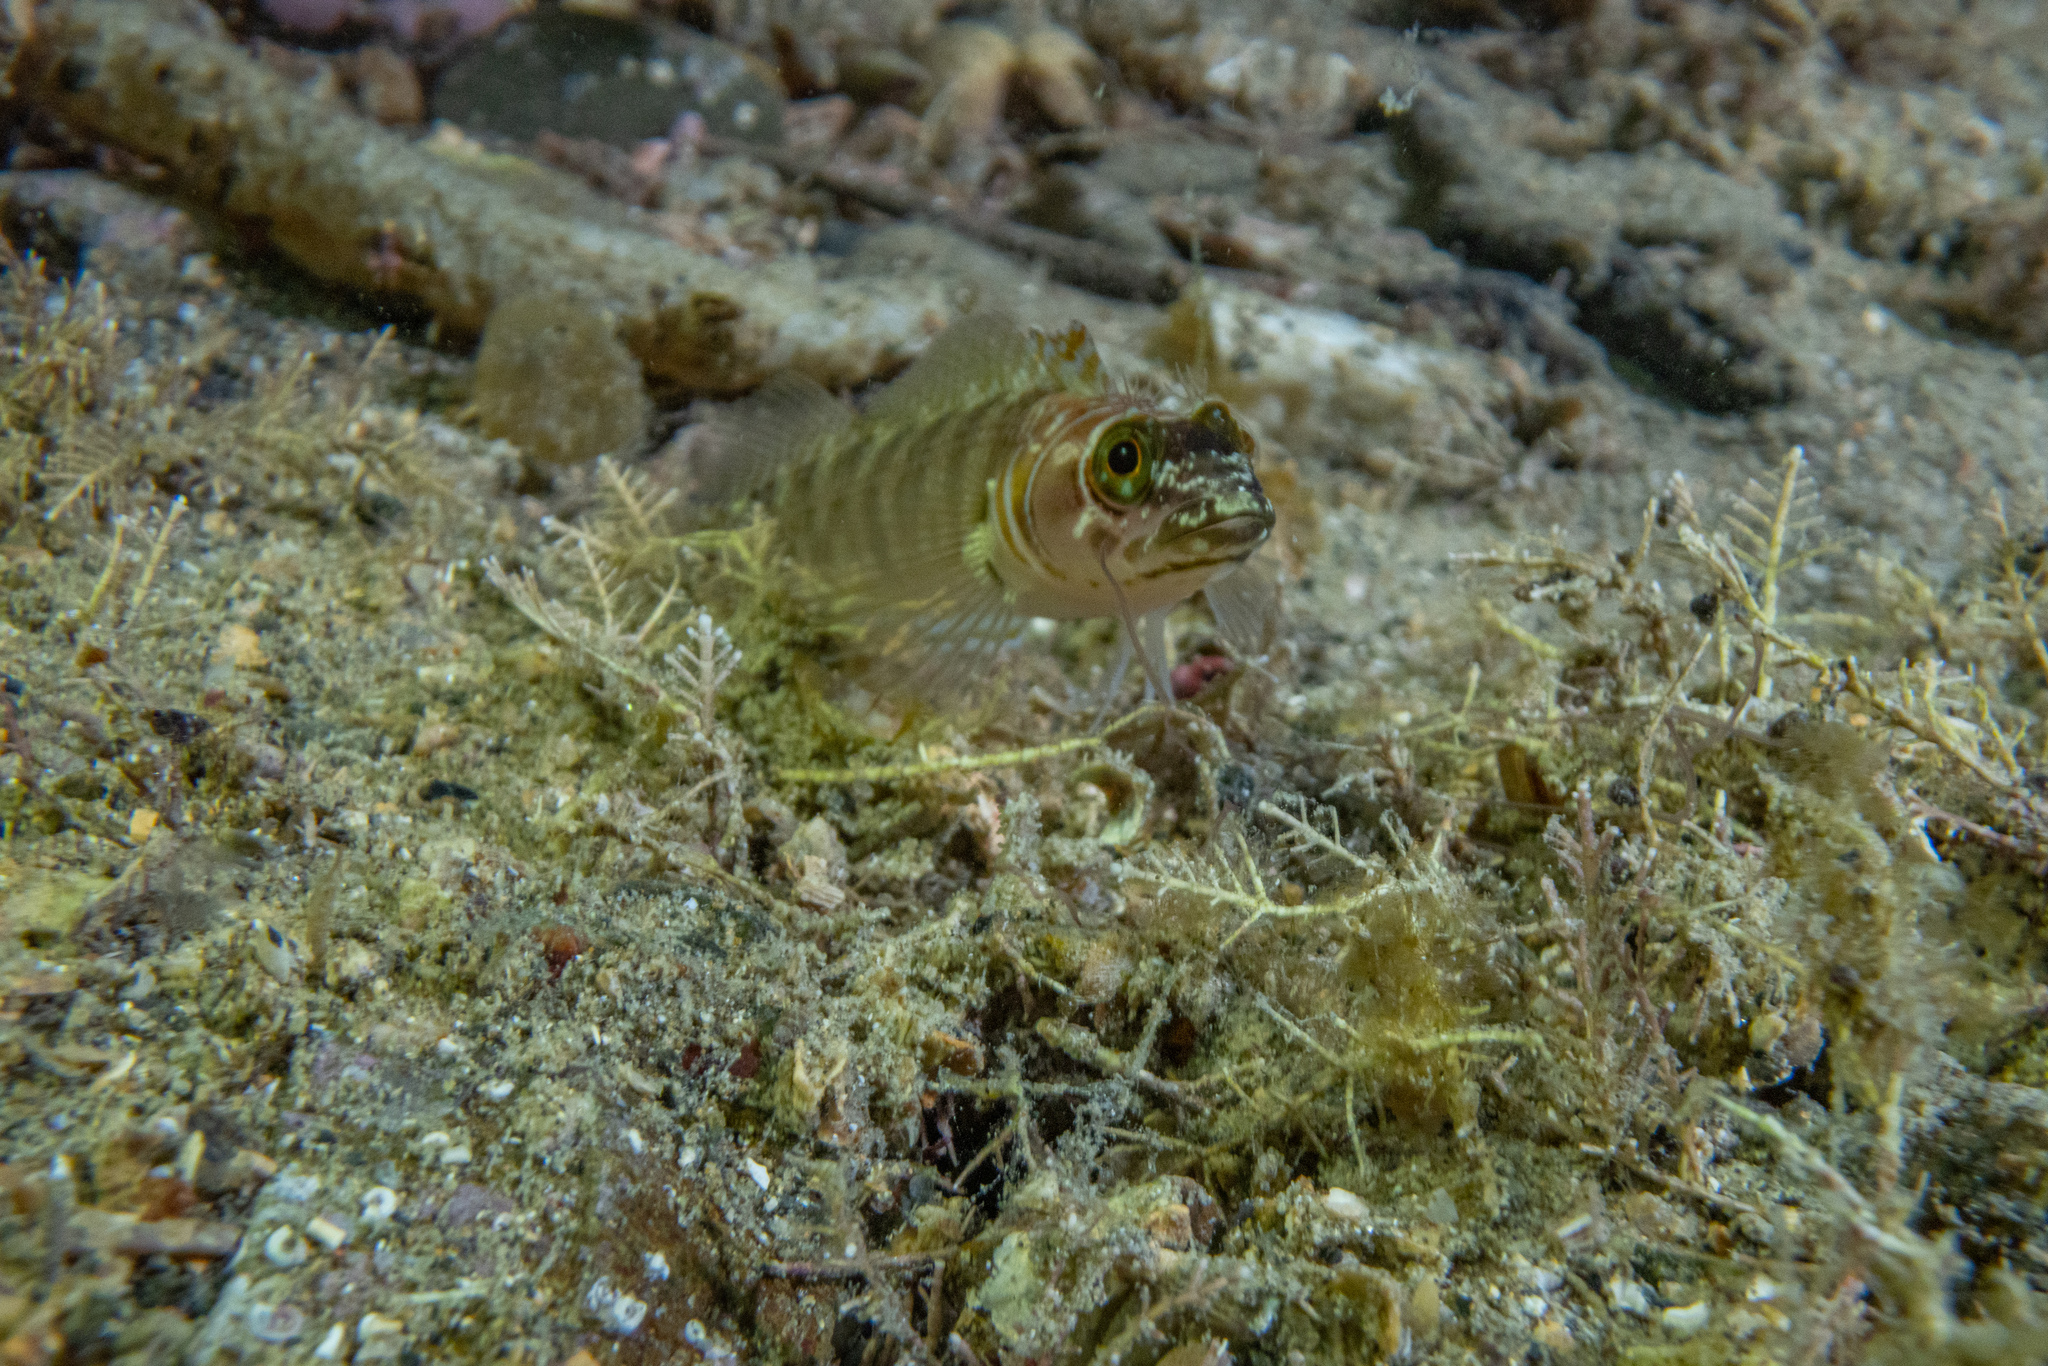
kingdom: Animalia
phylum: Chordata
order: Perciformes
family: Tripterygiidae
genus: Ruanoho
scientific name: Ruanoho whero
